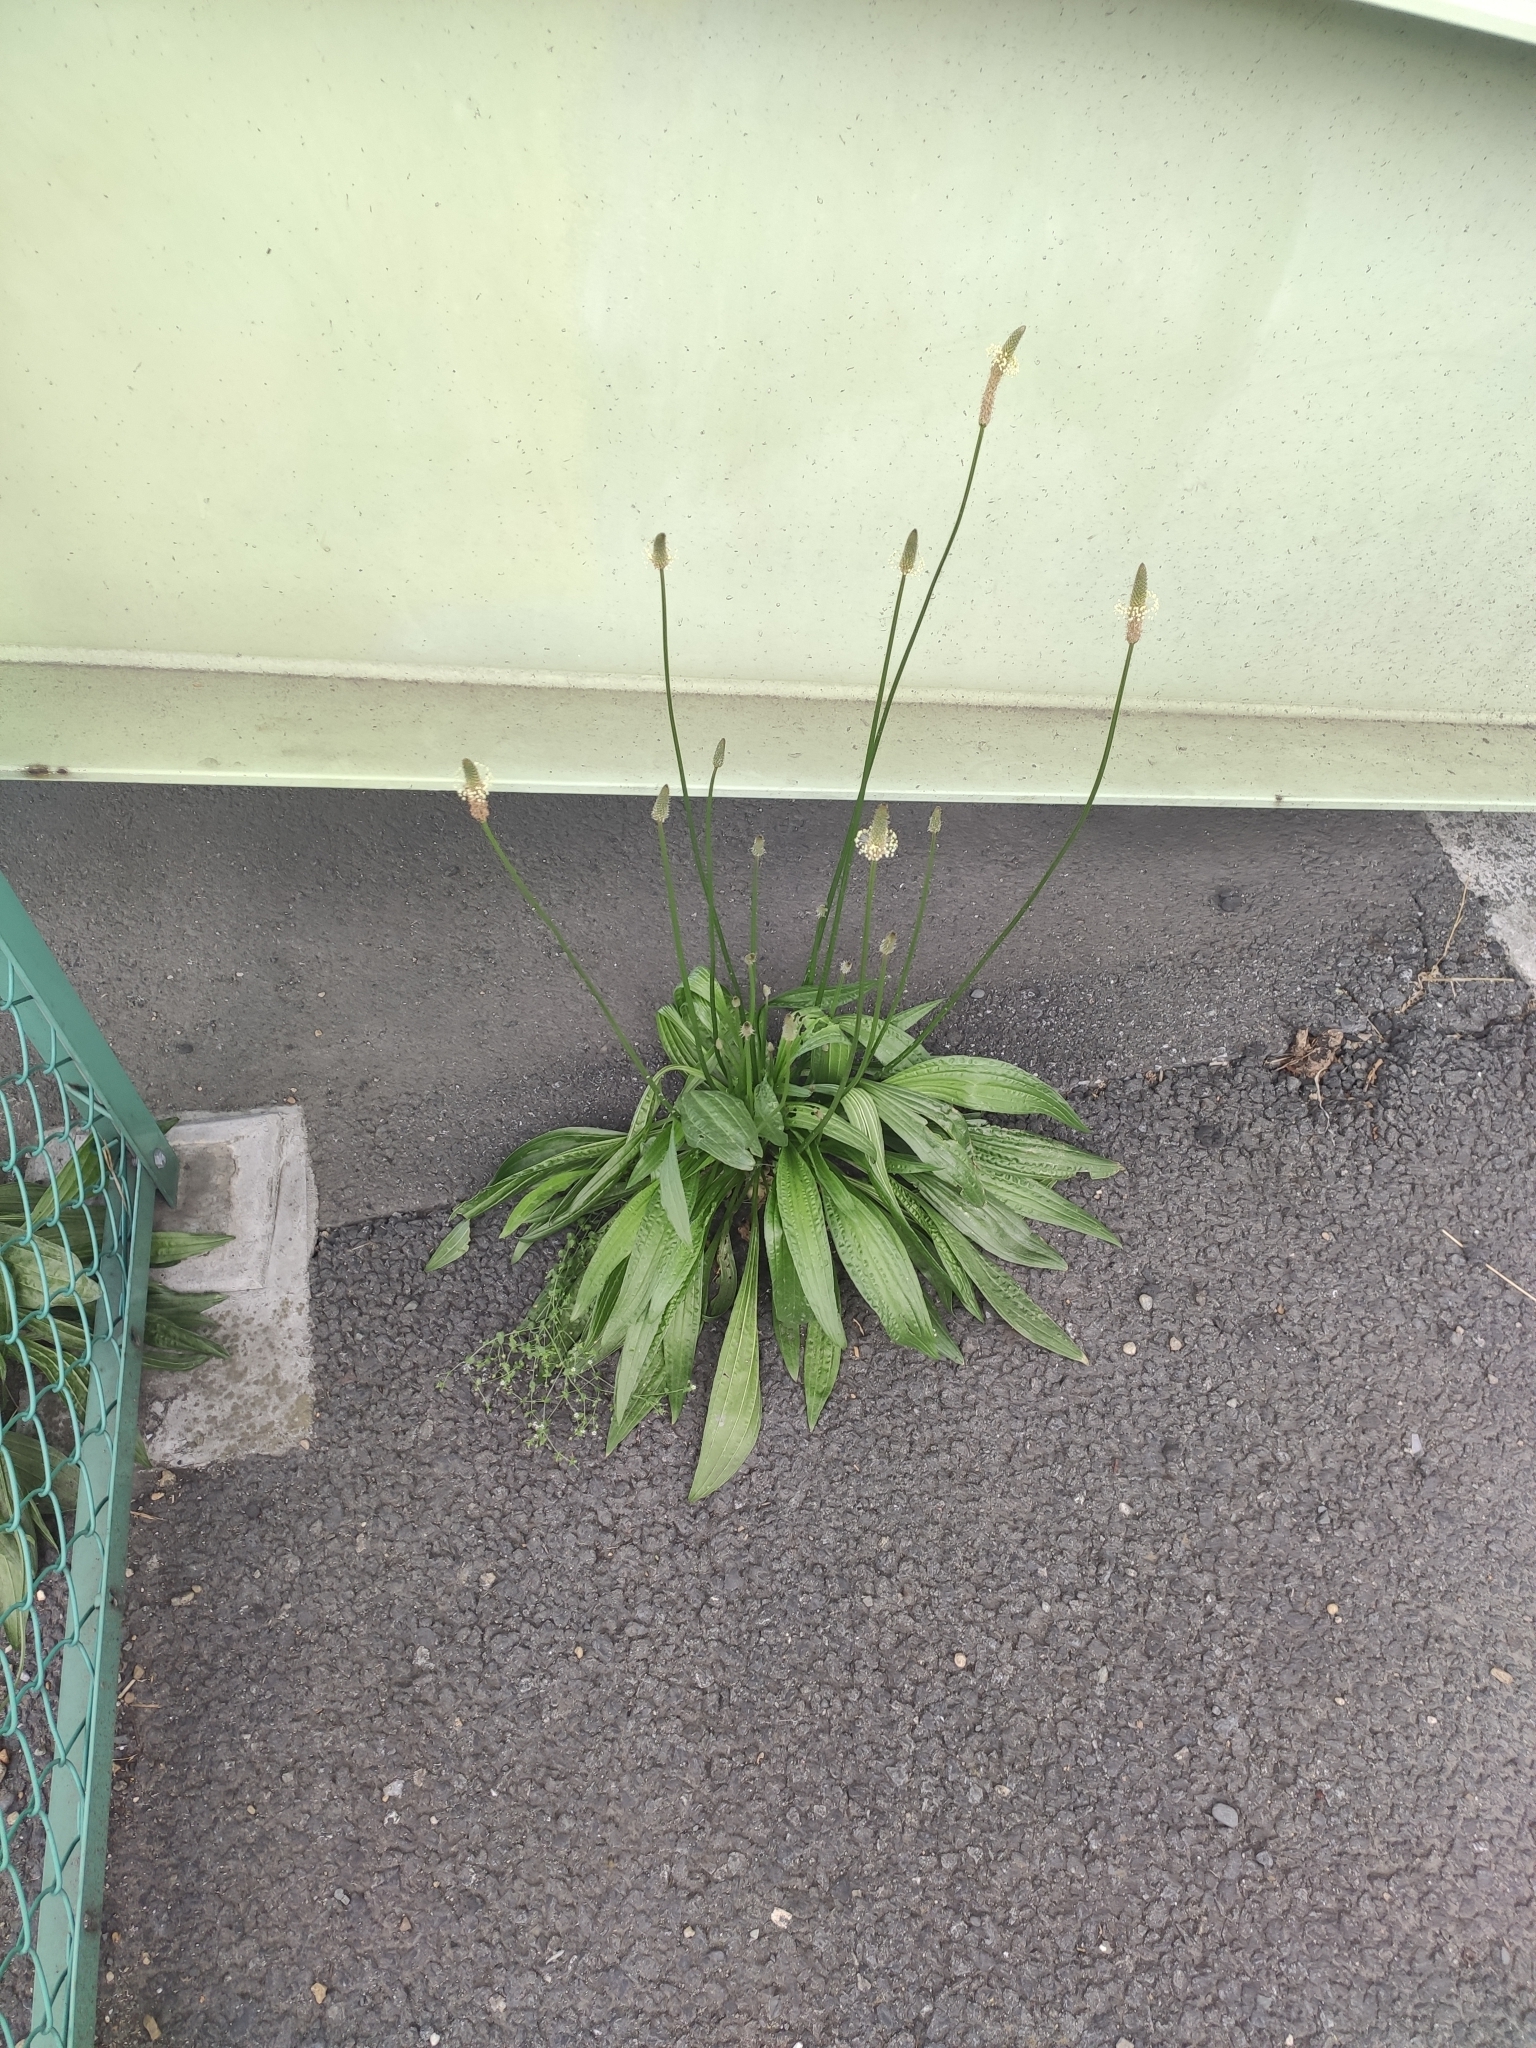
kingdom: Plantae
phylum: Tracheophyta
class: Magnoliopsida
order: Lamiales
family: Plantaginaceae
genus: Plantago
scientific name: Plantago lanceolata
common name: Ribwort plantain
